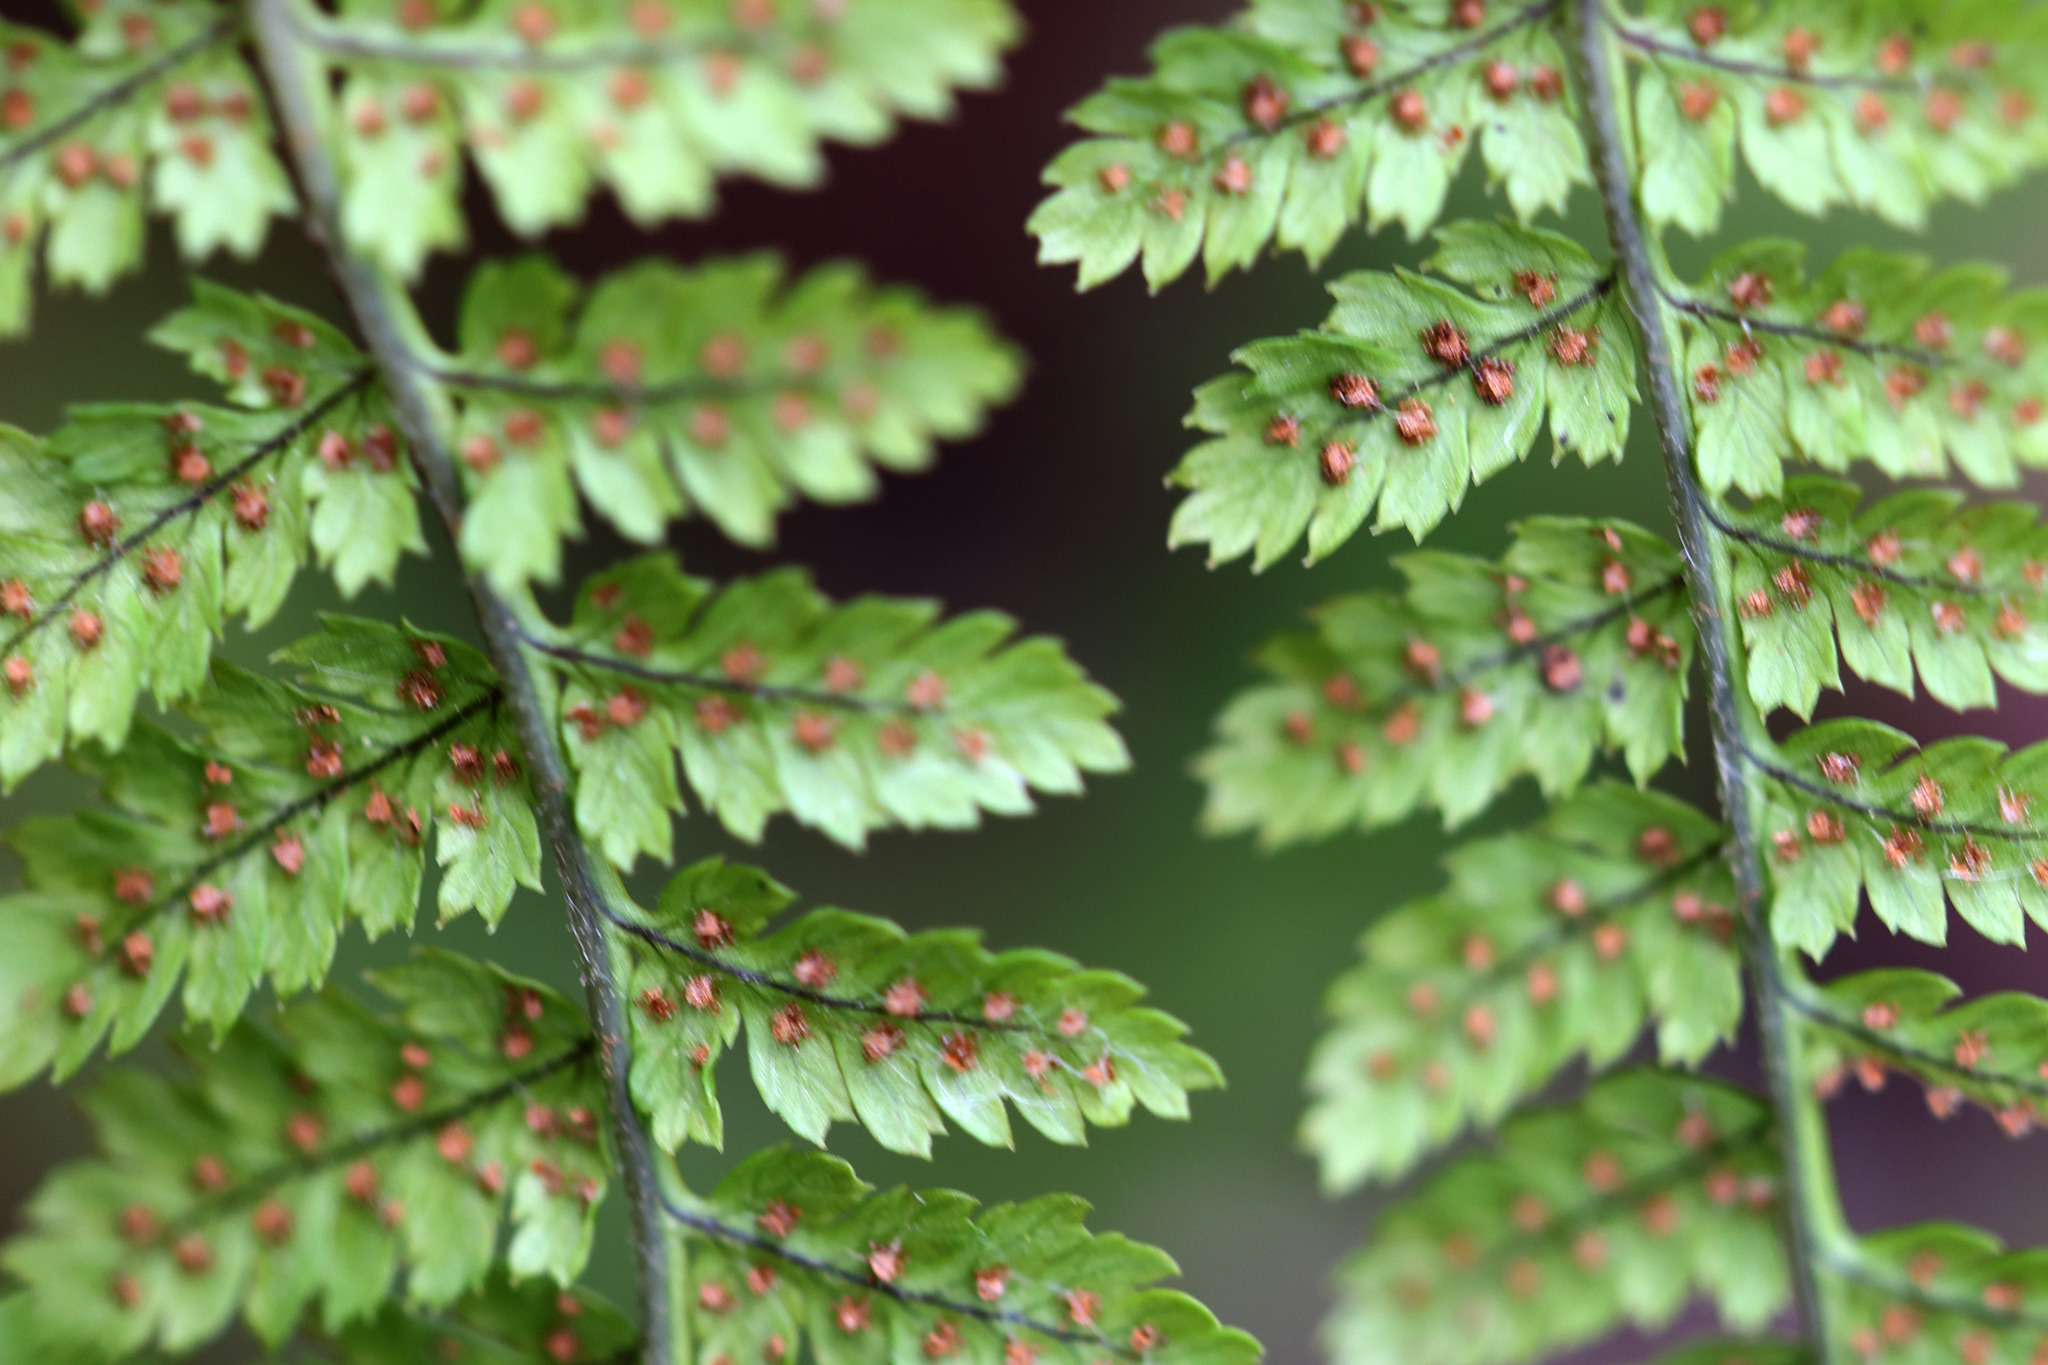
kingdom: Plantae
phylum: Tracheophyta
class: Polypodiopsida
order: Polypodiales
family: Dryopteridaceae
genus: Dryopteris
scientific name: Dryopteris intermedia
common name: Evergreen wood fern
